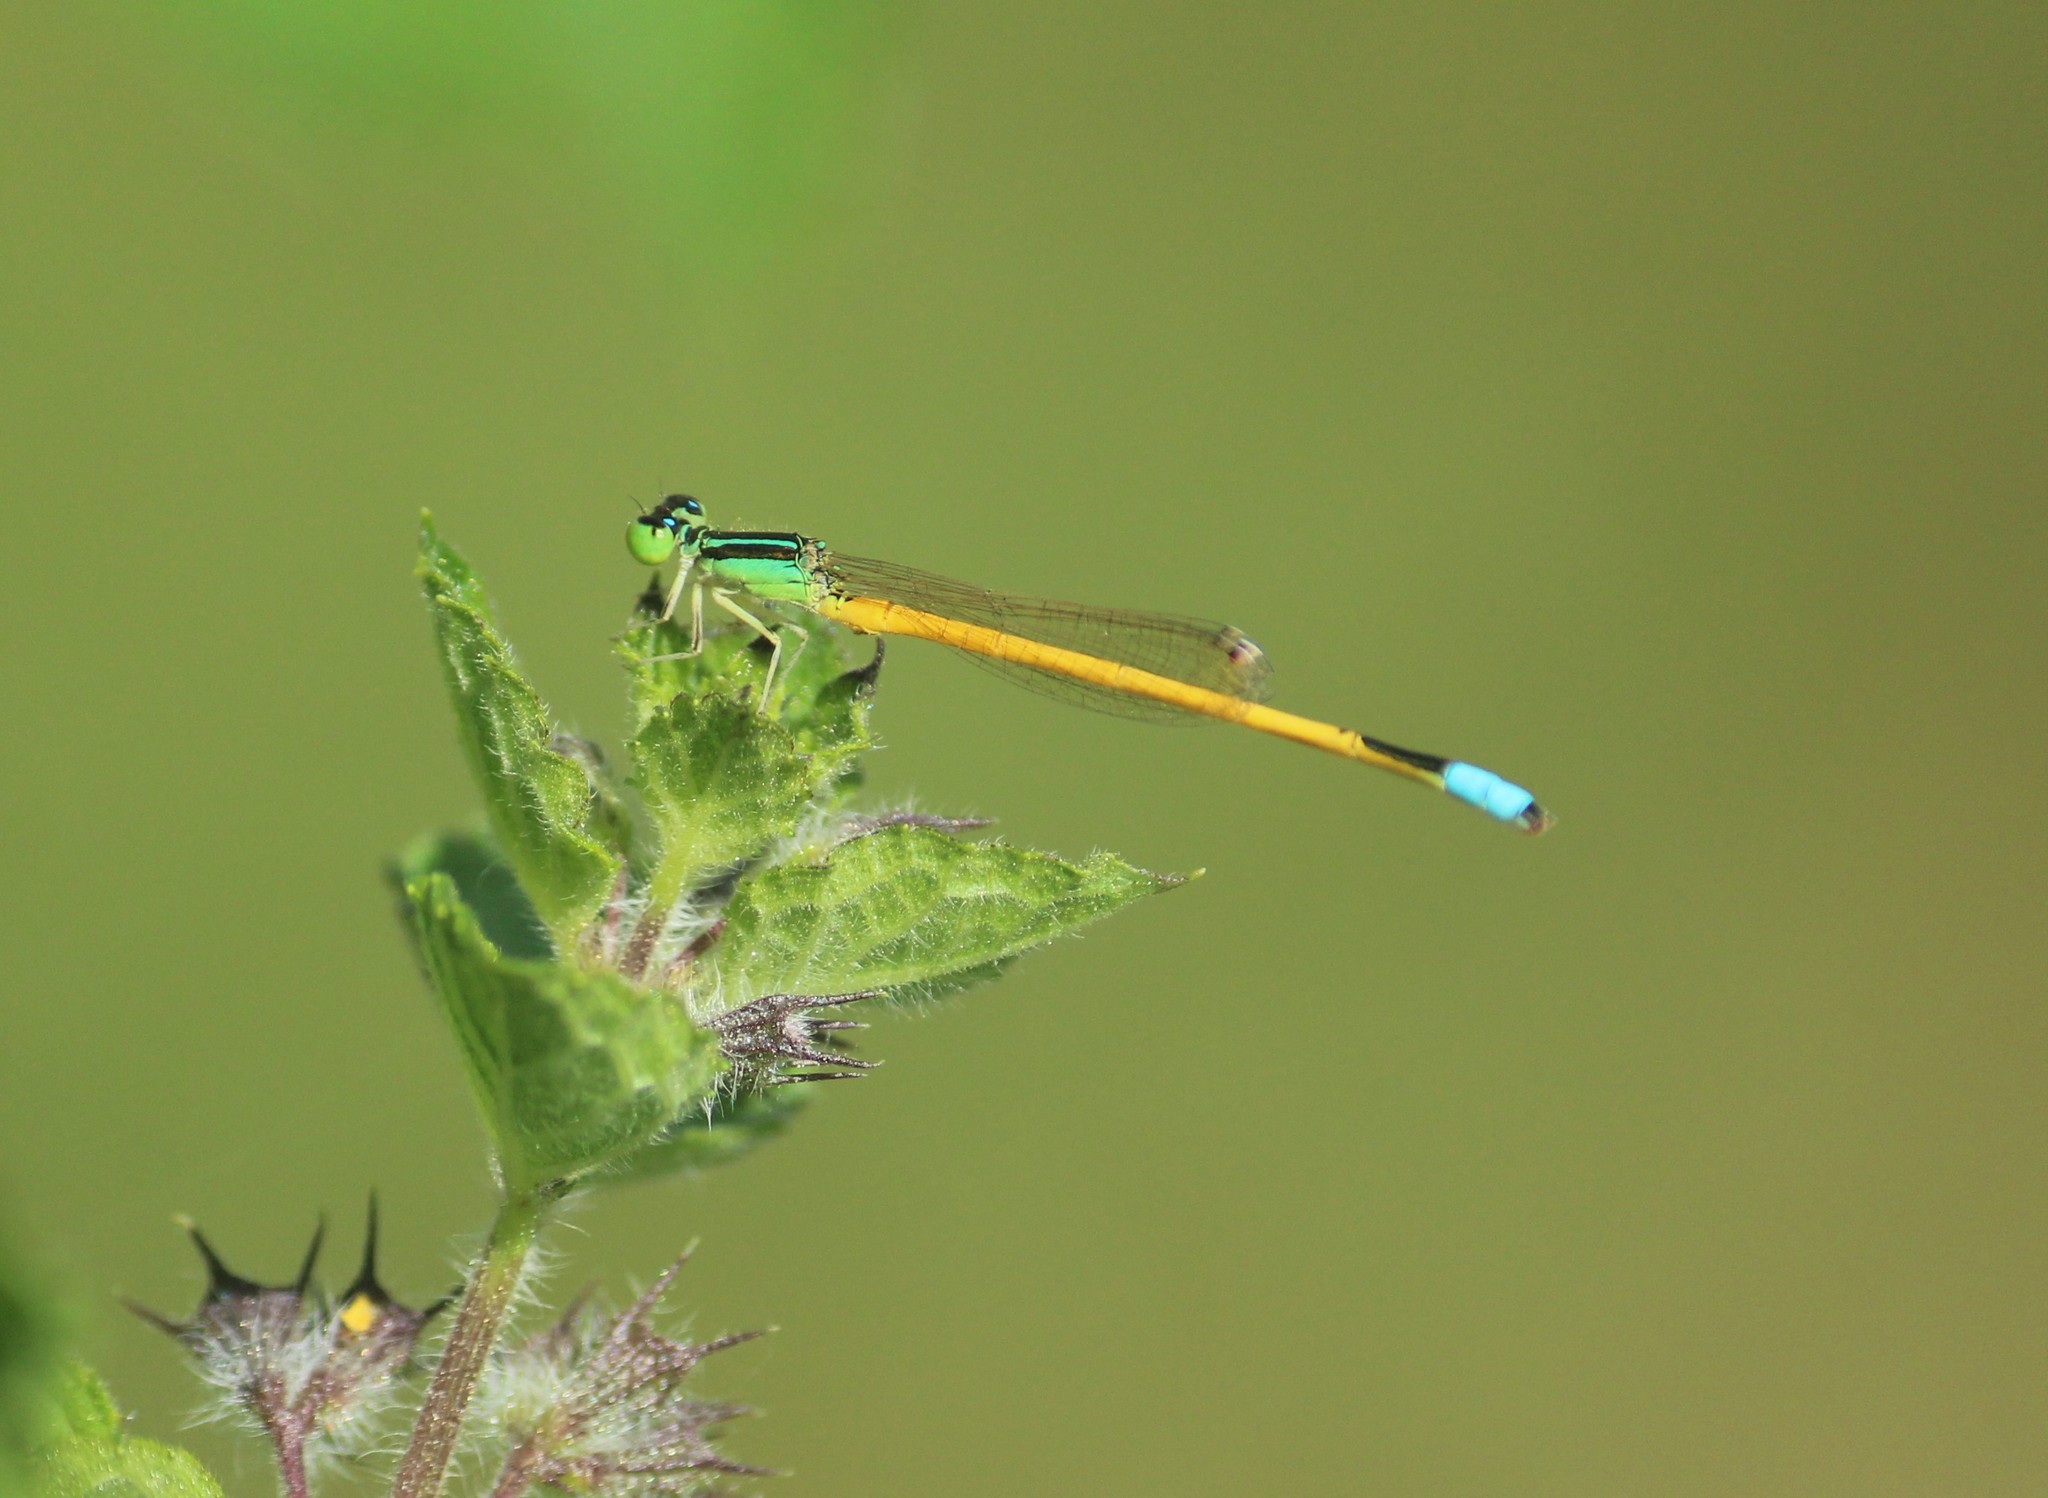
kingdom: Animalia
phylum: Arthropoda
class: Insecta
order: Odonata
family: Coenagrionidae
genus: Ischnura
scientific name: Ischnura rubilio
